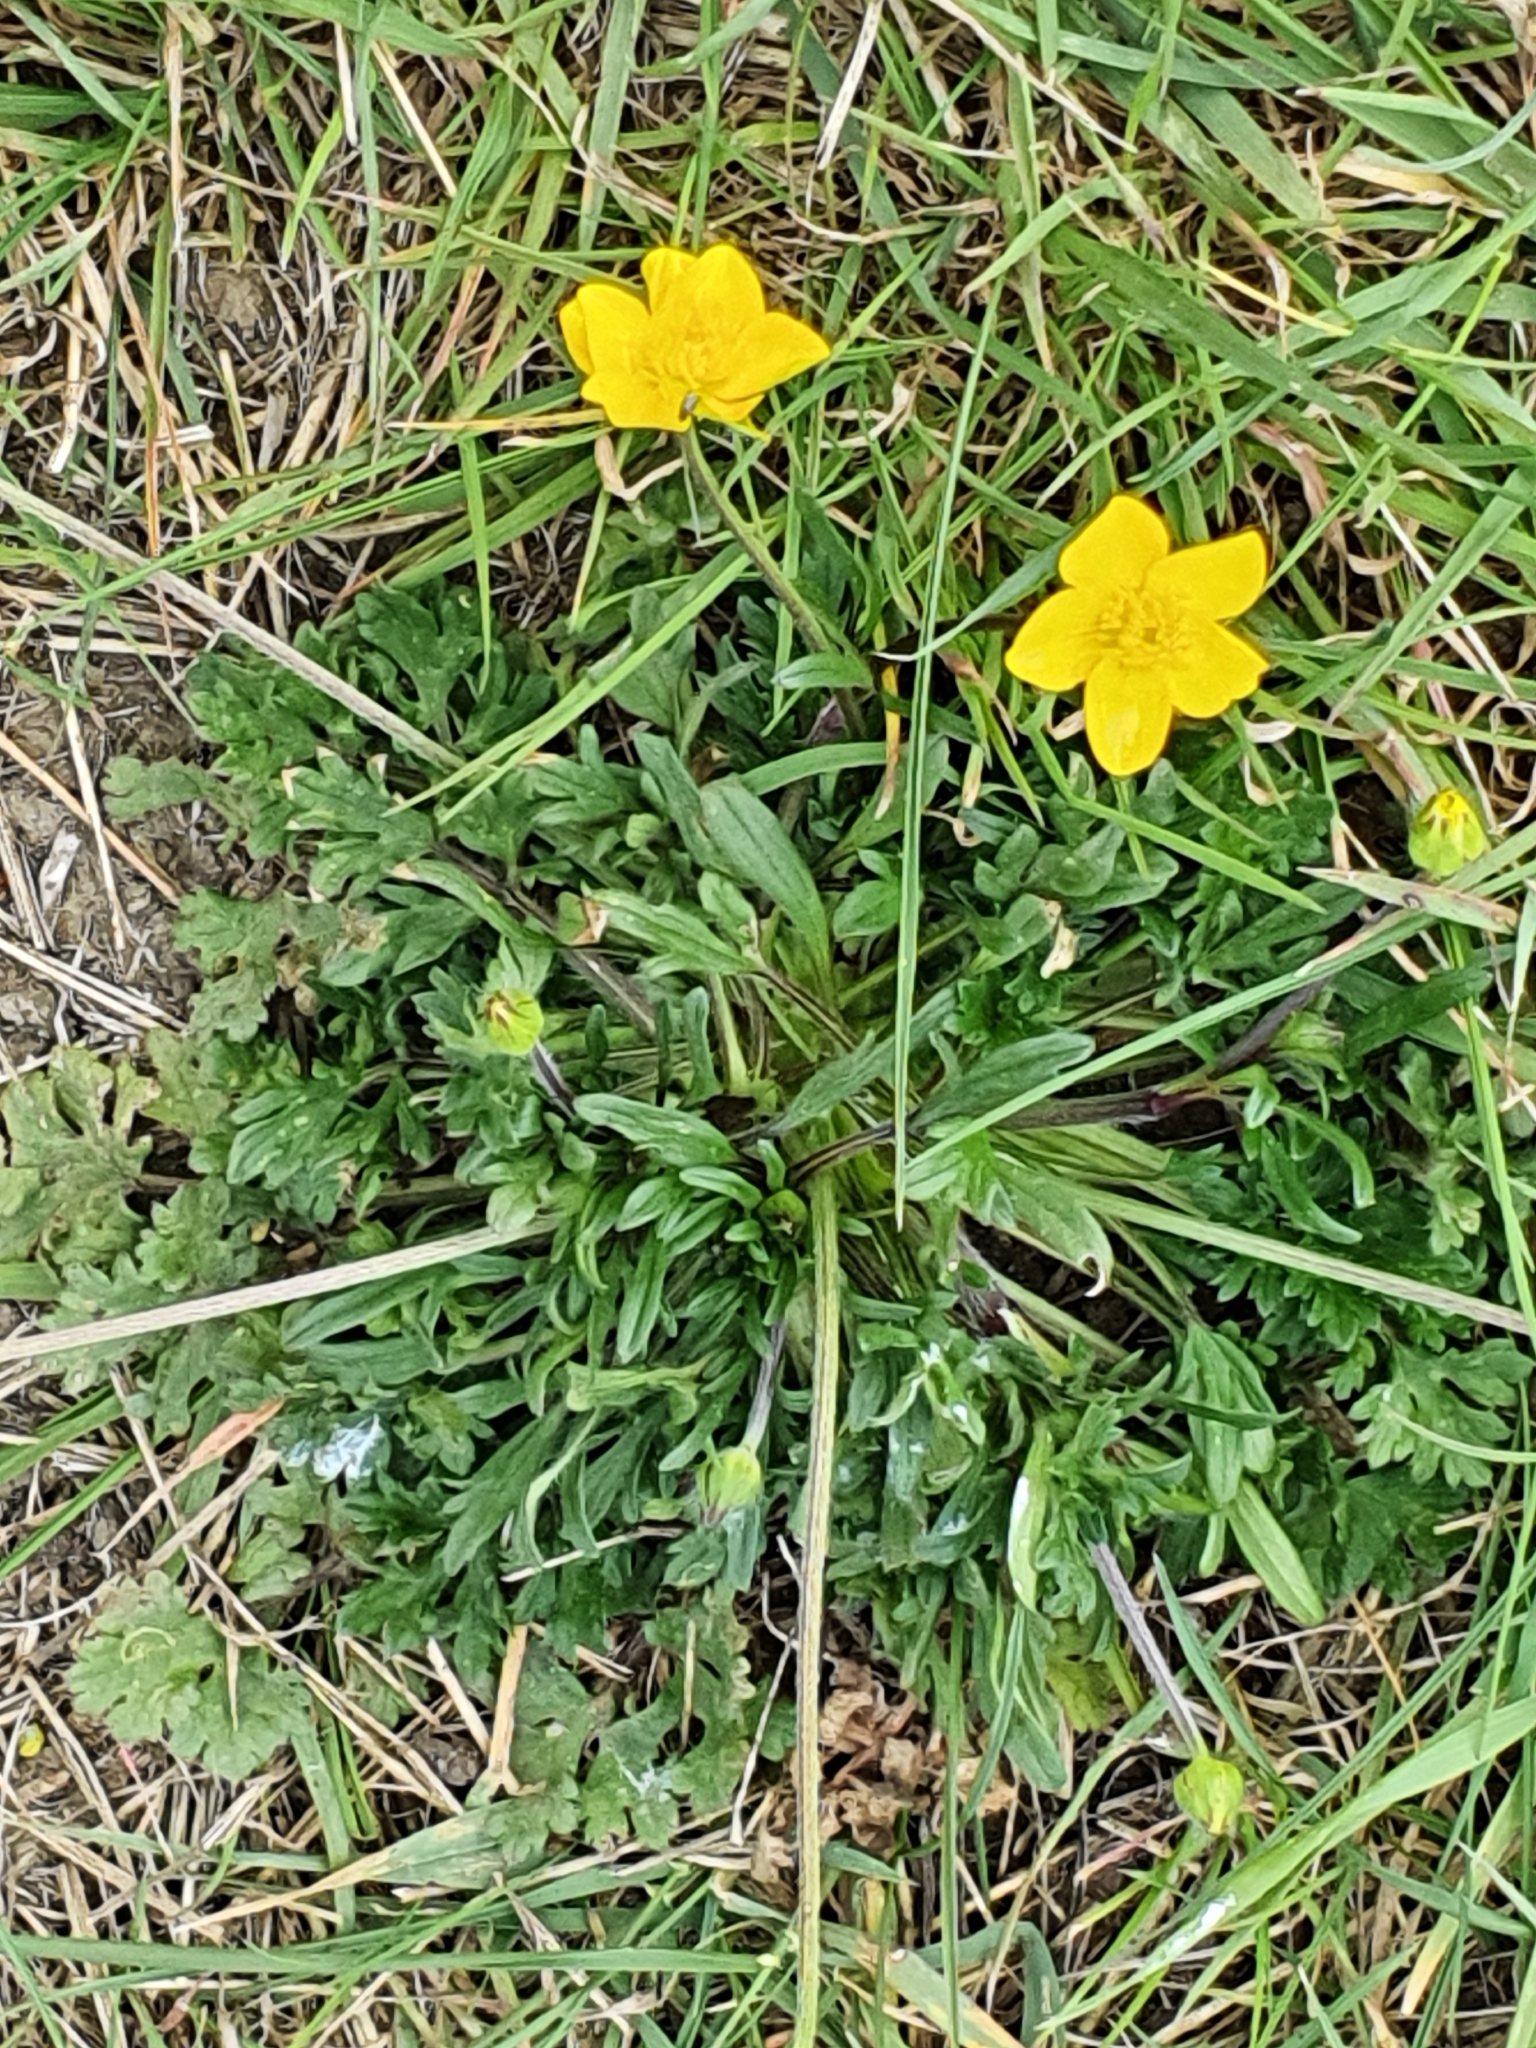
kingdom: Plantae
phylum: Tracheophyta
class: Magnoliopsida
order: Ranunculales
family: Ranunculaceae
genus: Ranunculus
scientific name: Ranunculus bulbosus
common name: Bulbous buttercup
